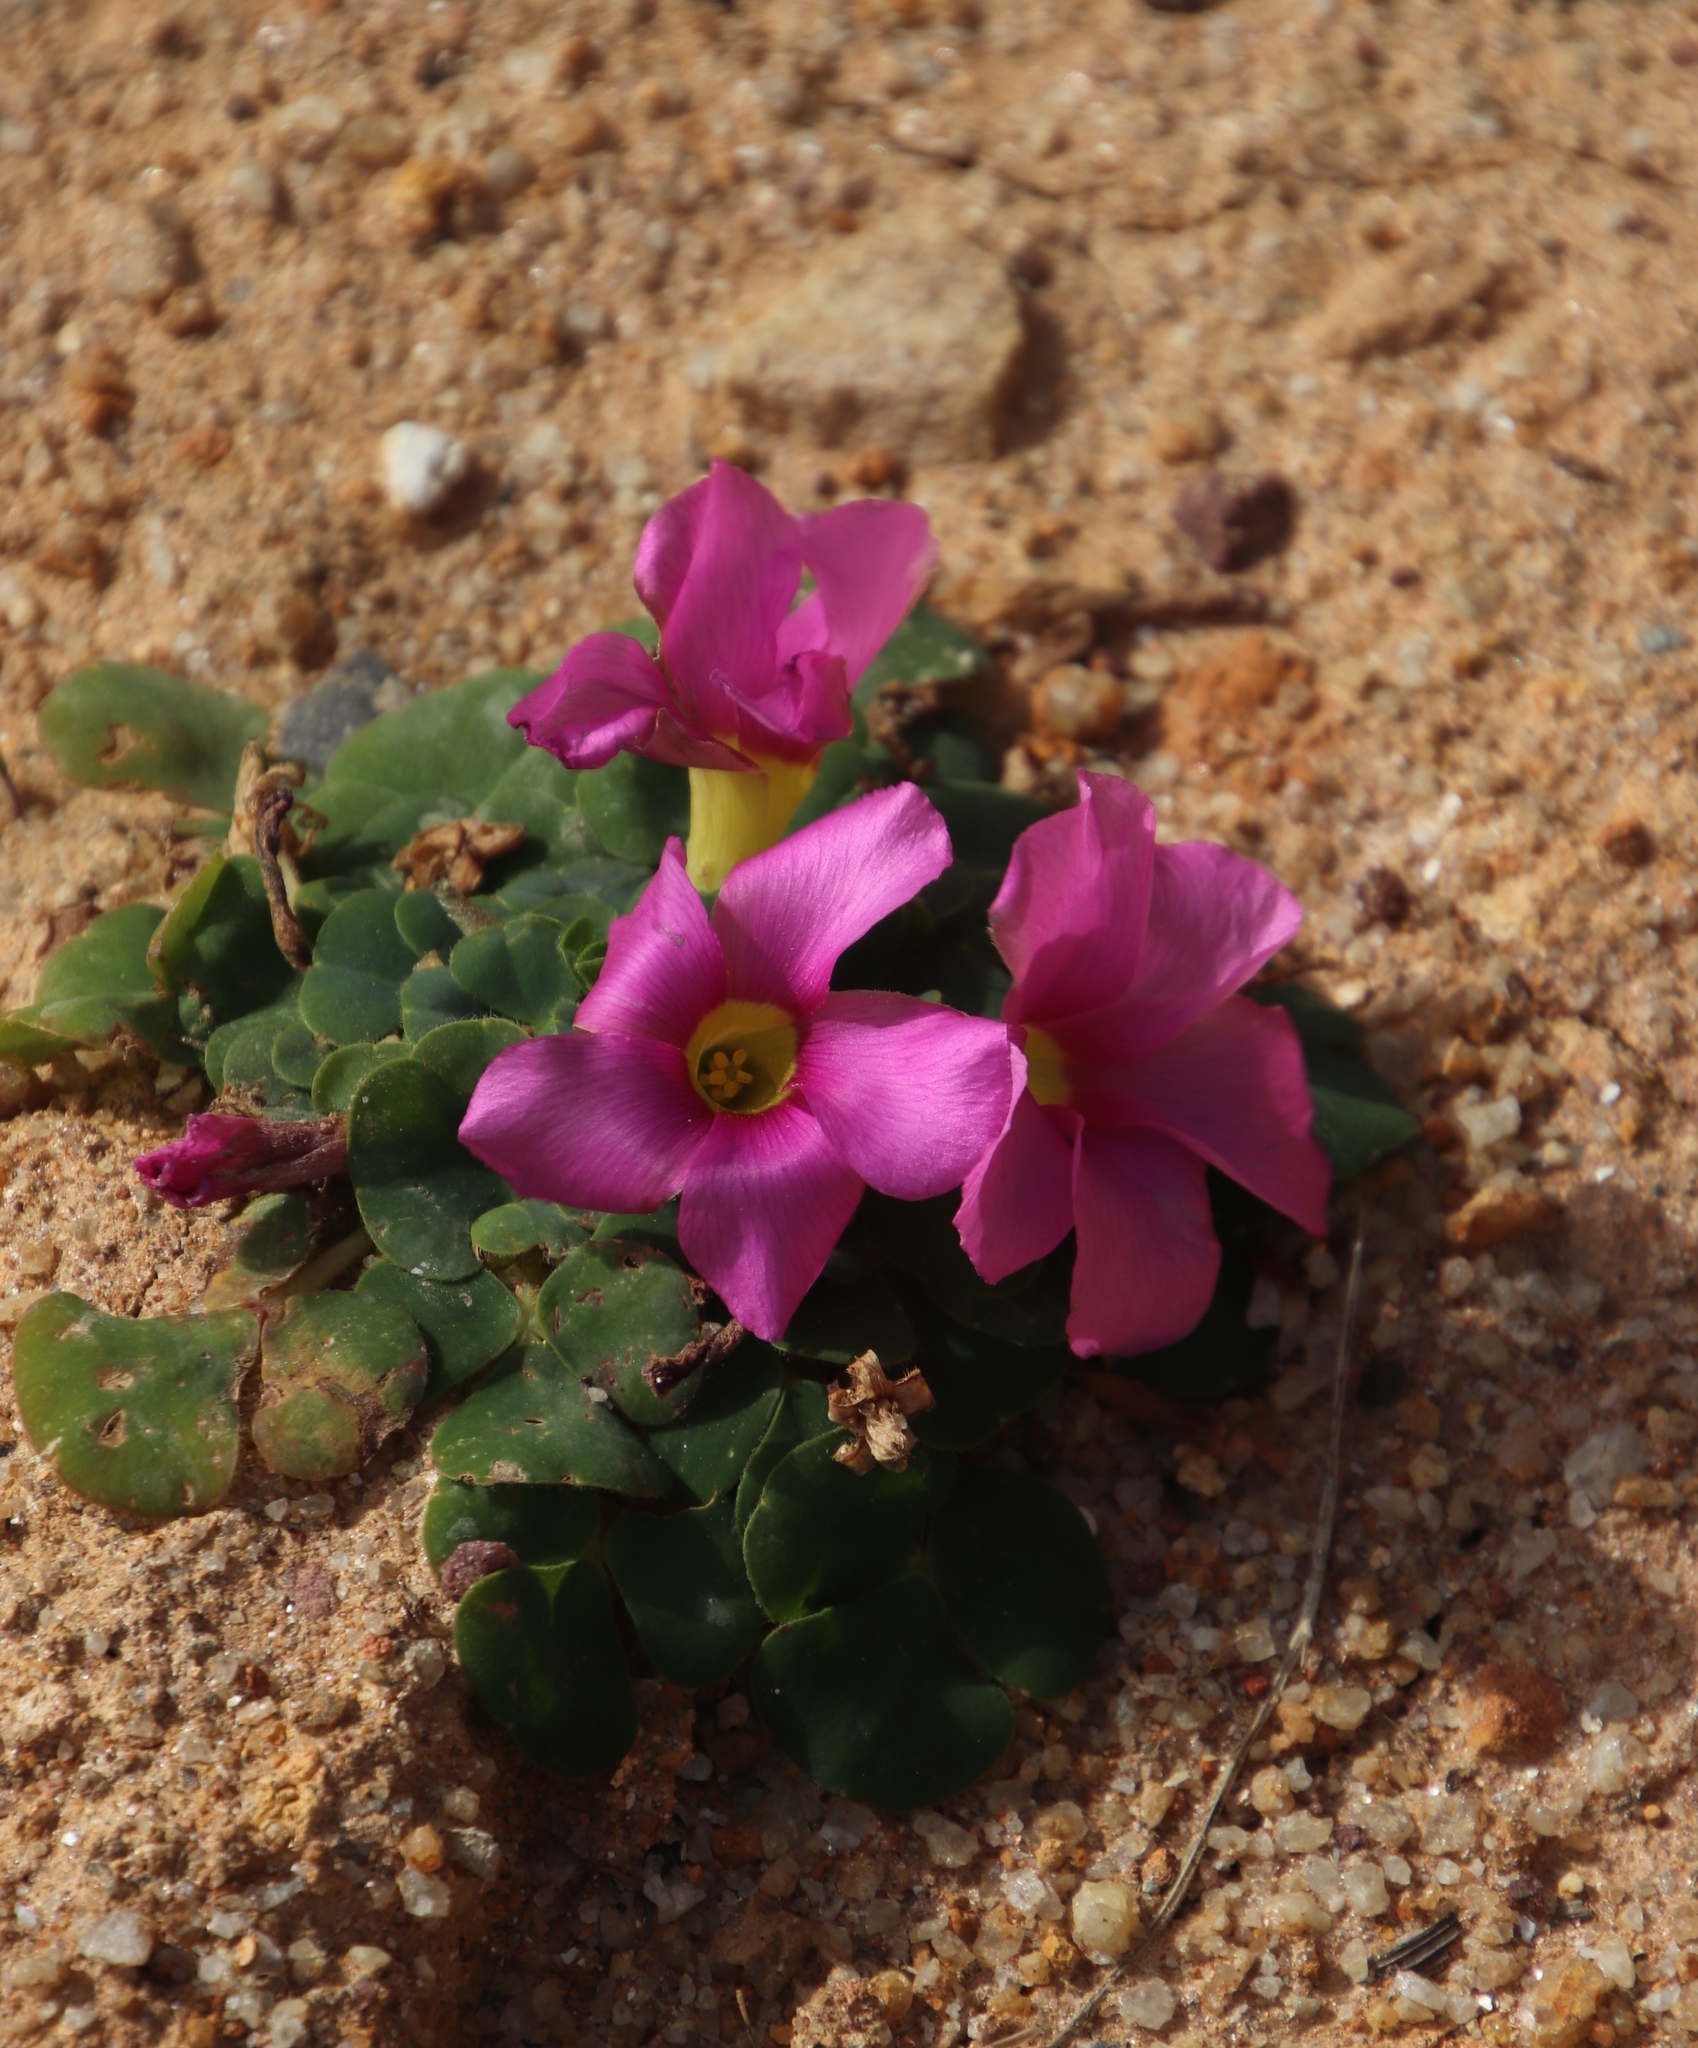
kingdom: Plantae
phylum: Tracheophyta
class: Magnoliopsida
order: Oxalidales
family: Oxalidaceae
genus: Oxalis
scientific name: Oxalis purpurea
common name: Purple woodsorrel
